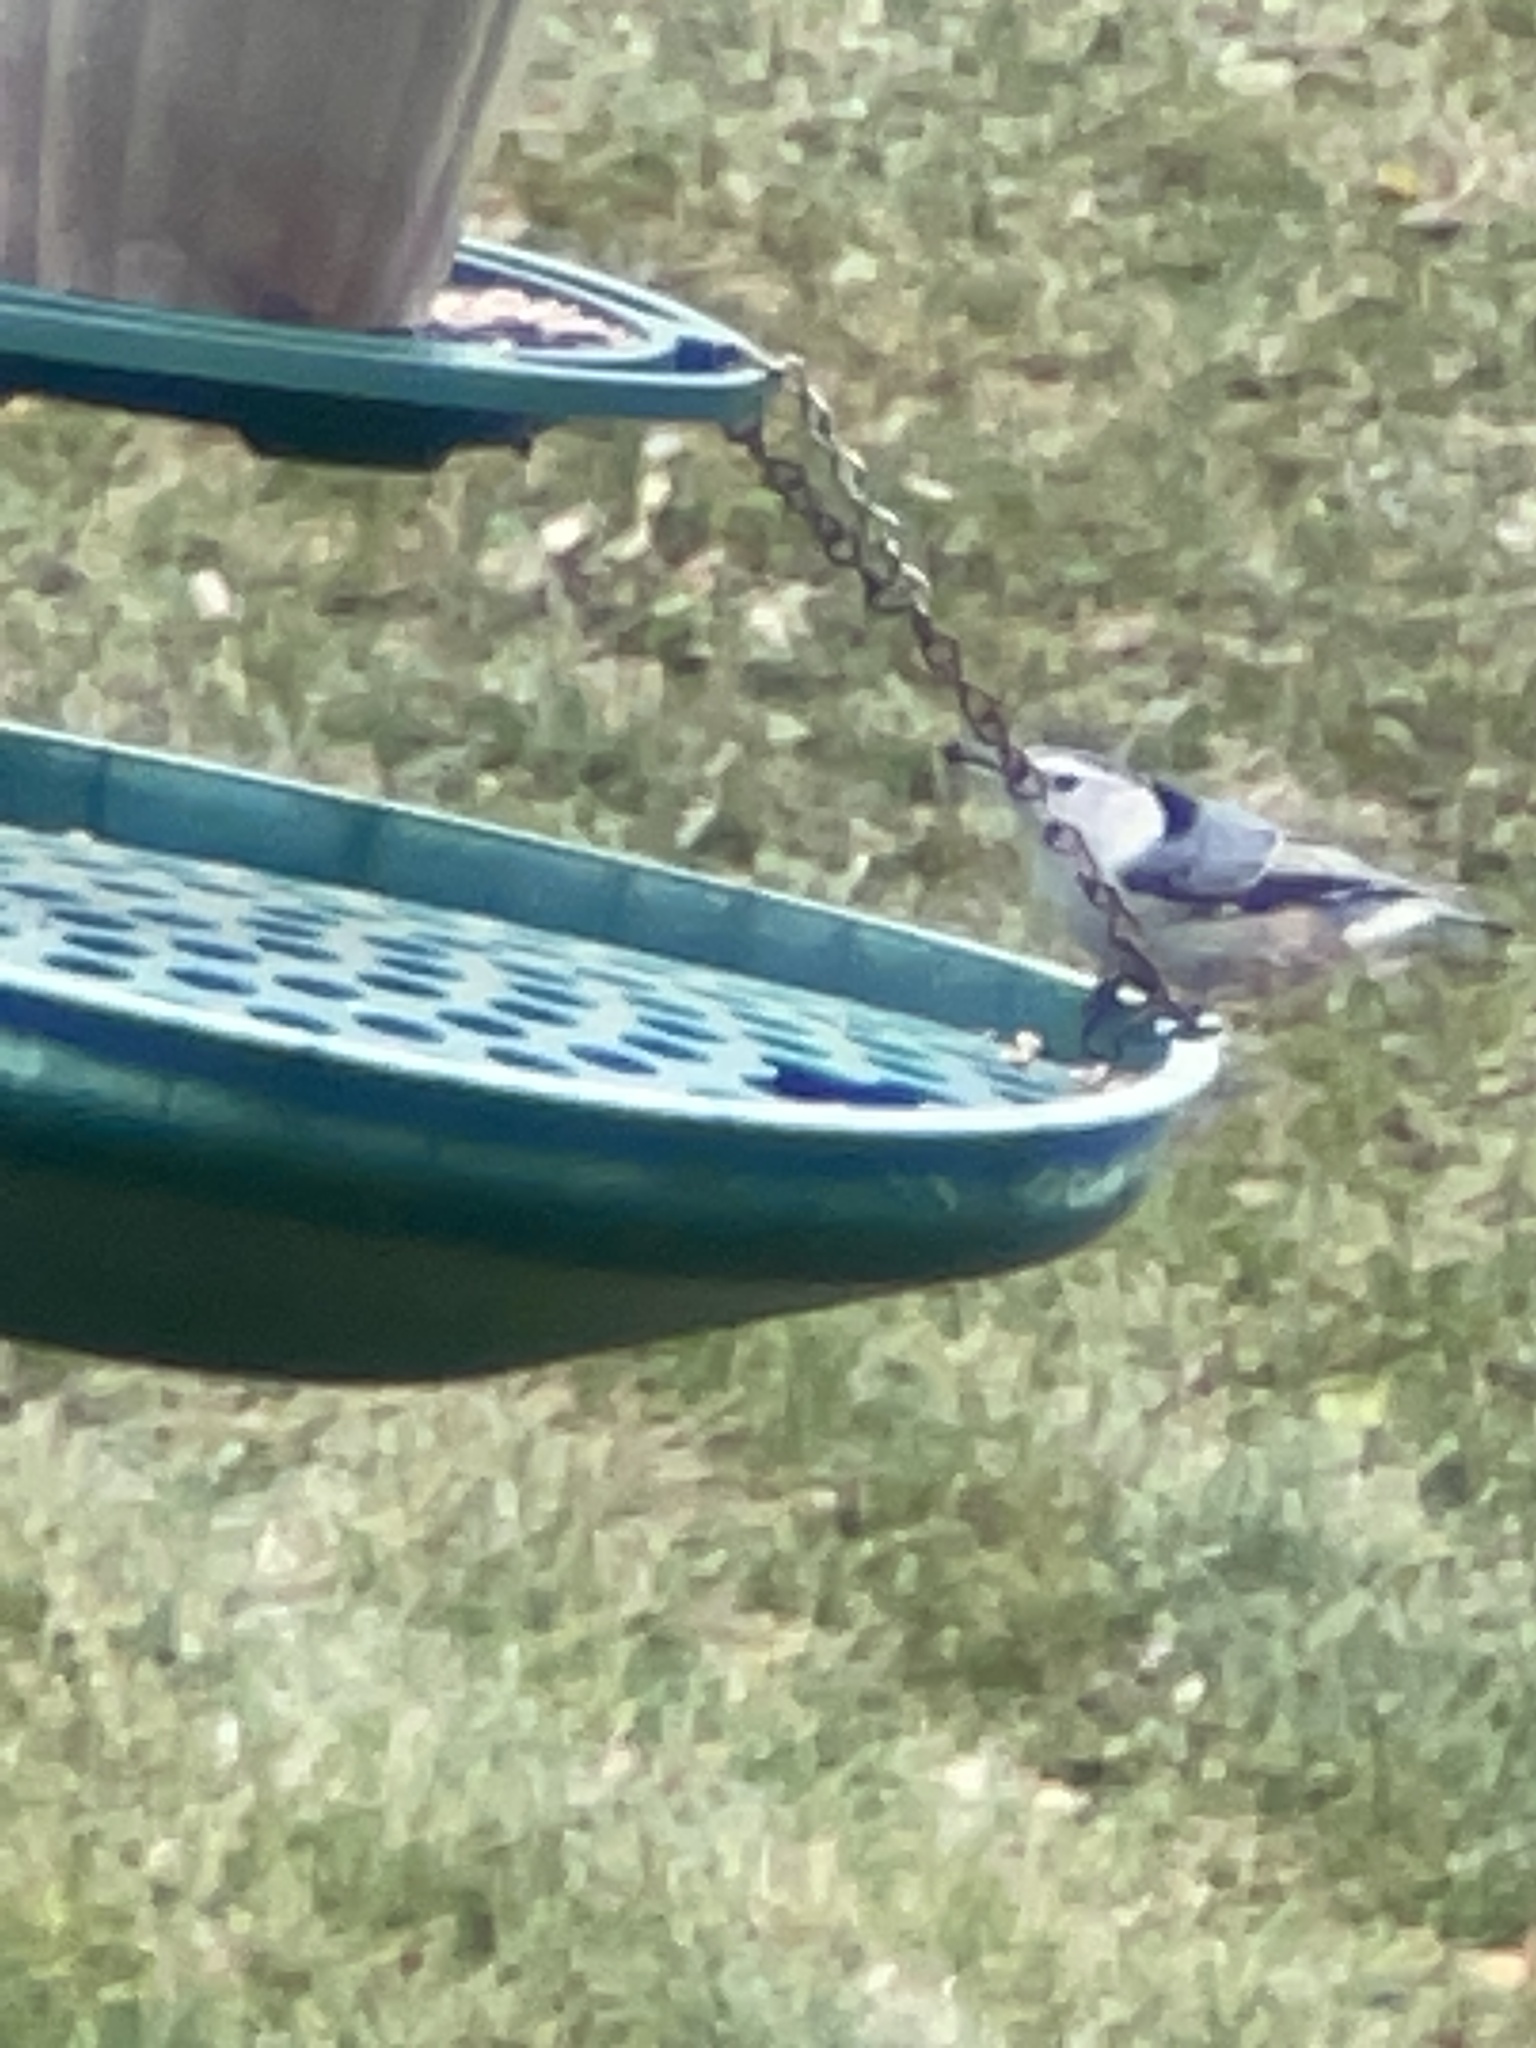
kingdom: Animalia
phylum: Chordata
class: Aves
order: Passeriformes
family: Sittidae
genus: Sitta
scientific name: Sitta carolinensis
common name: White-breasted nuthatch
